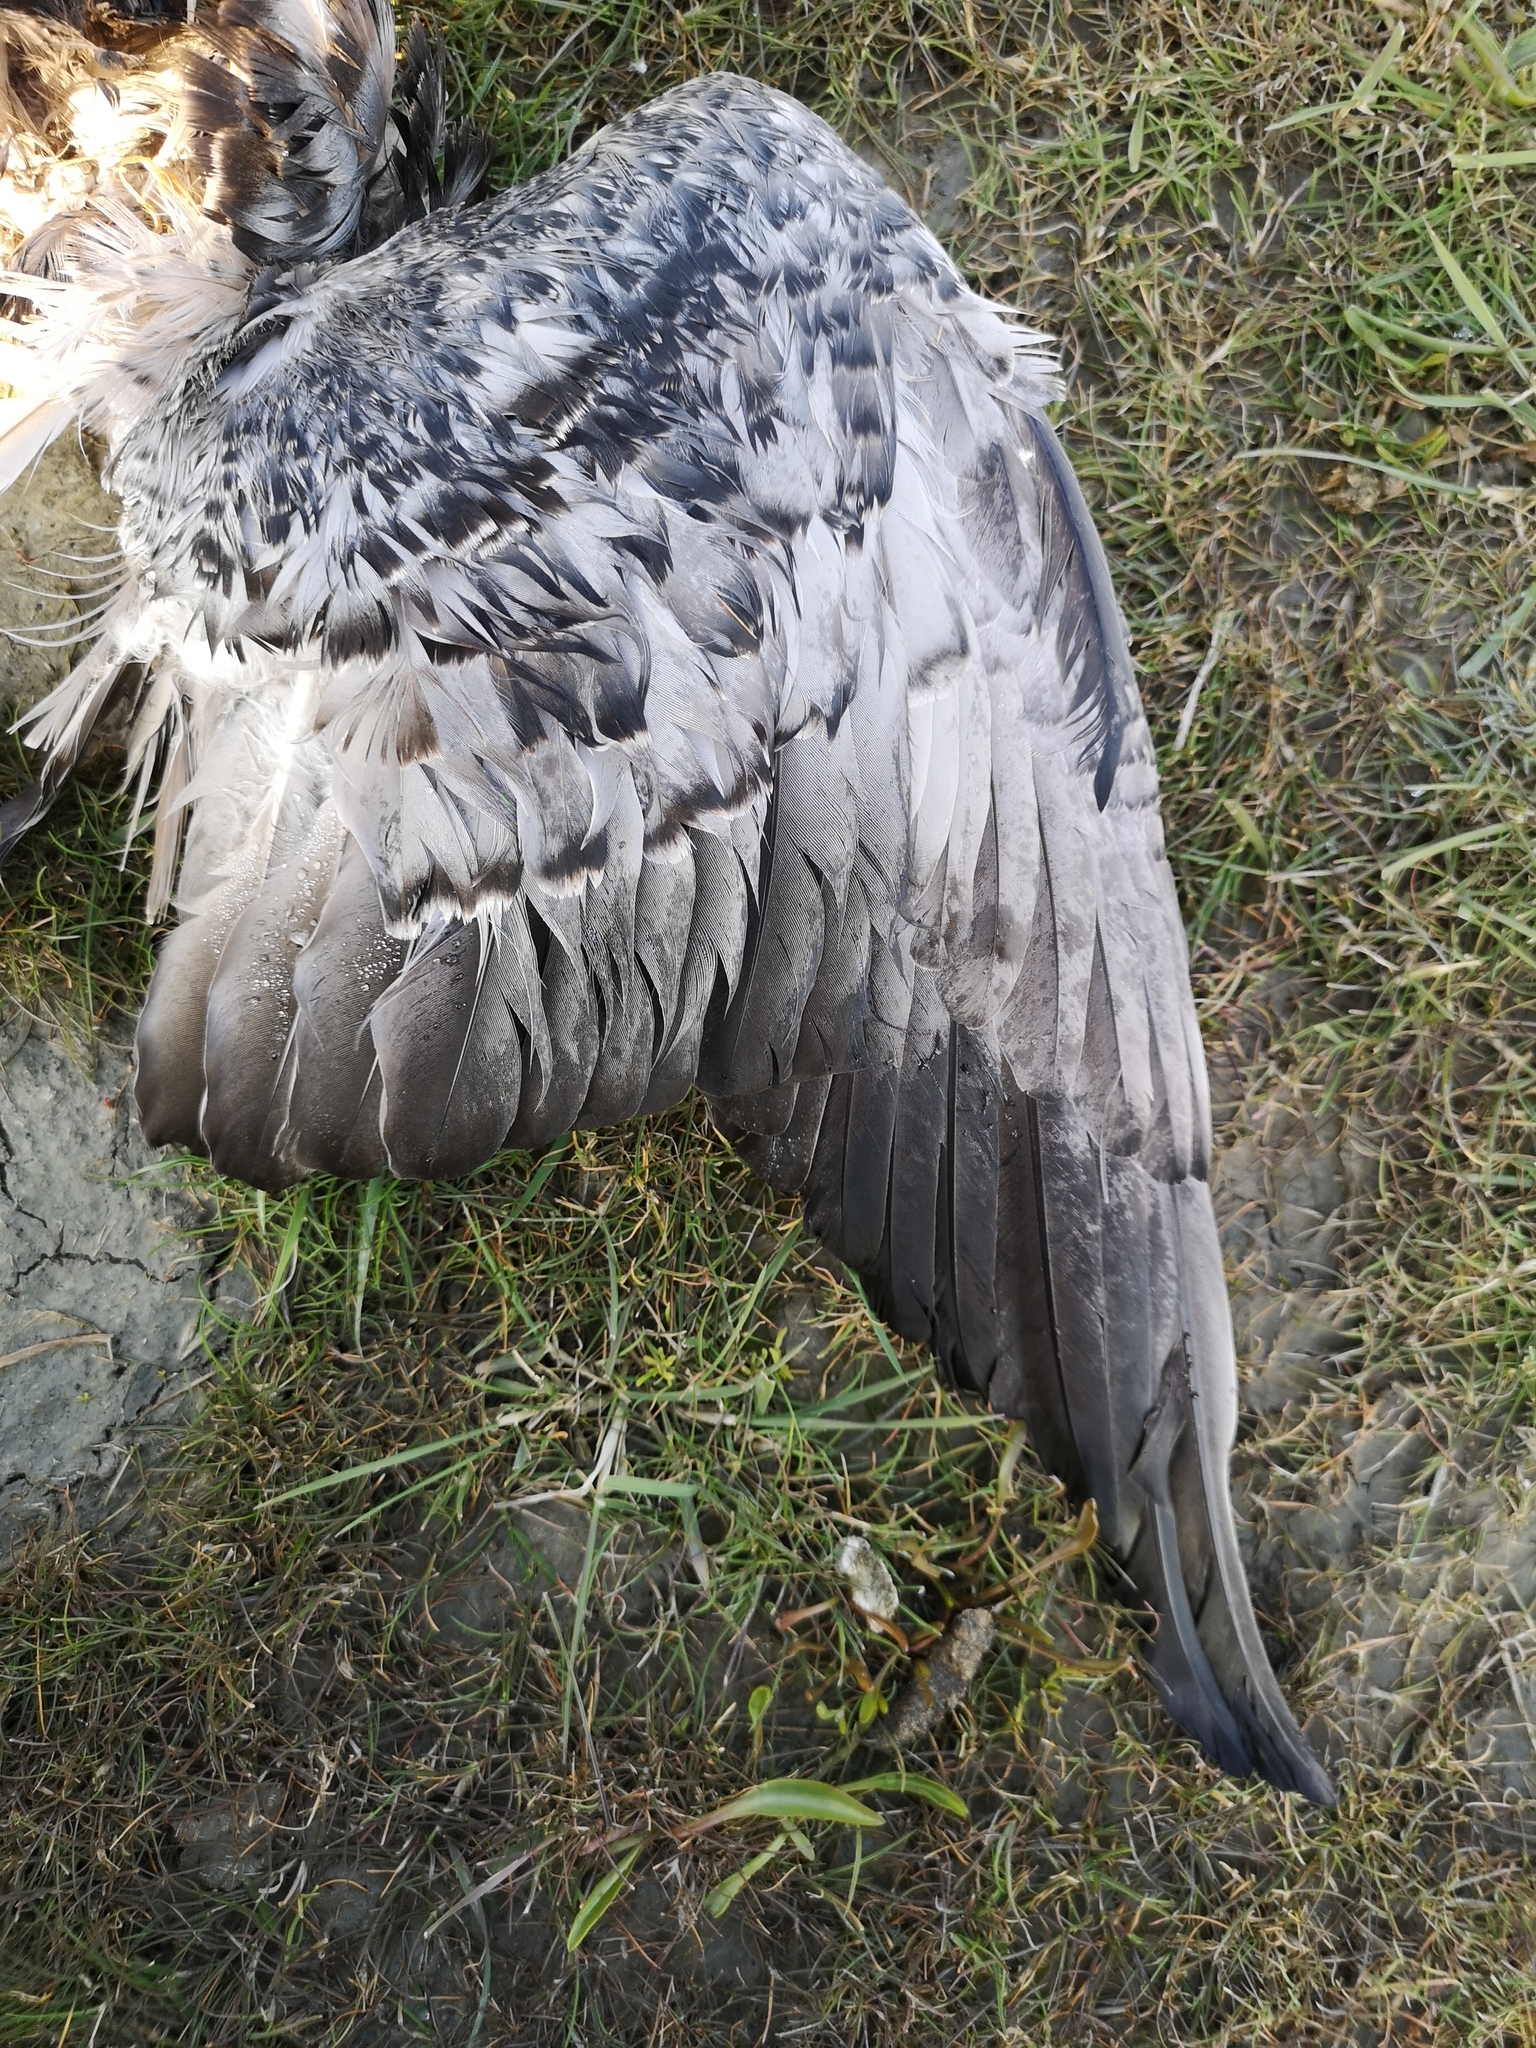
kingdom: Animalia
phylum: Chordata
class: Aves
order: Anseriformes
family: Anatidae
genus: Branta
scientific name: Branta leucopsis
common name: Barnacle goose
